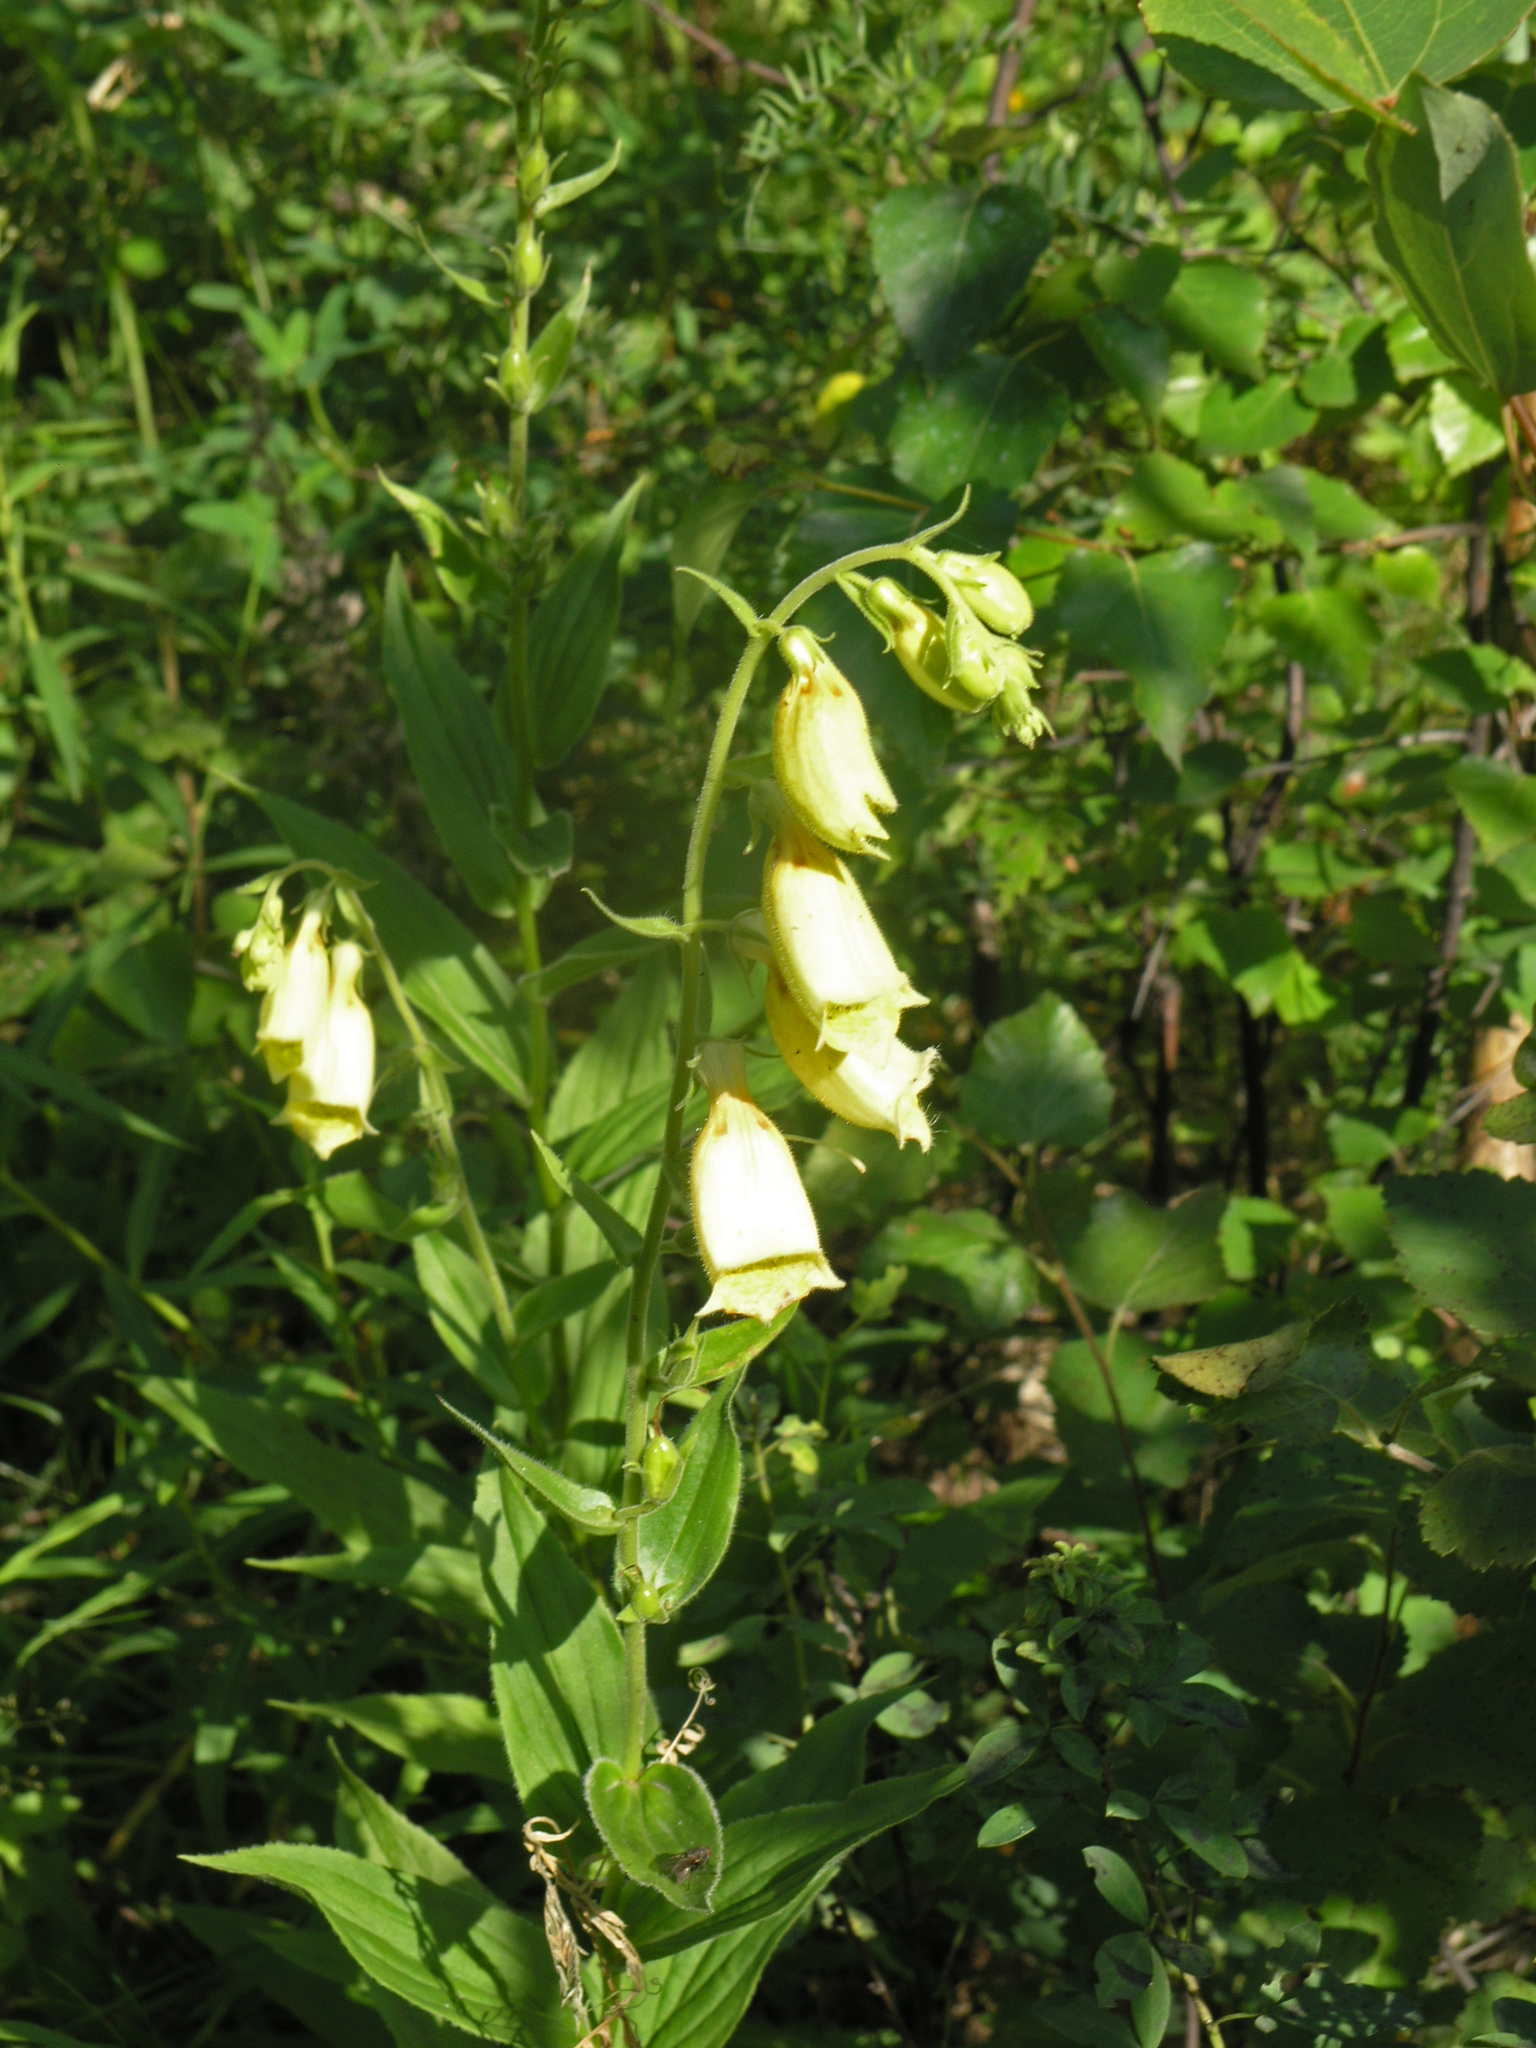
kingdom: Plantae
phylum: Tracheophyta
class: Magnoliopsida
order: Lamiales
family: Plantaginaceae
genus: Digitalis
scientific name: Digitalis grandiflora
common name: Yellow foxglove
